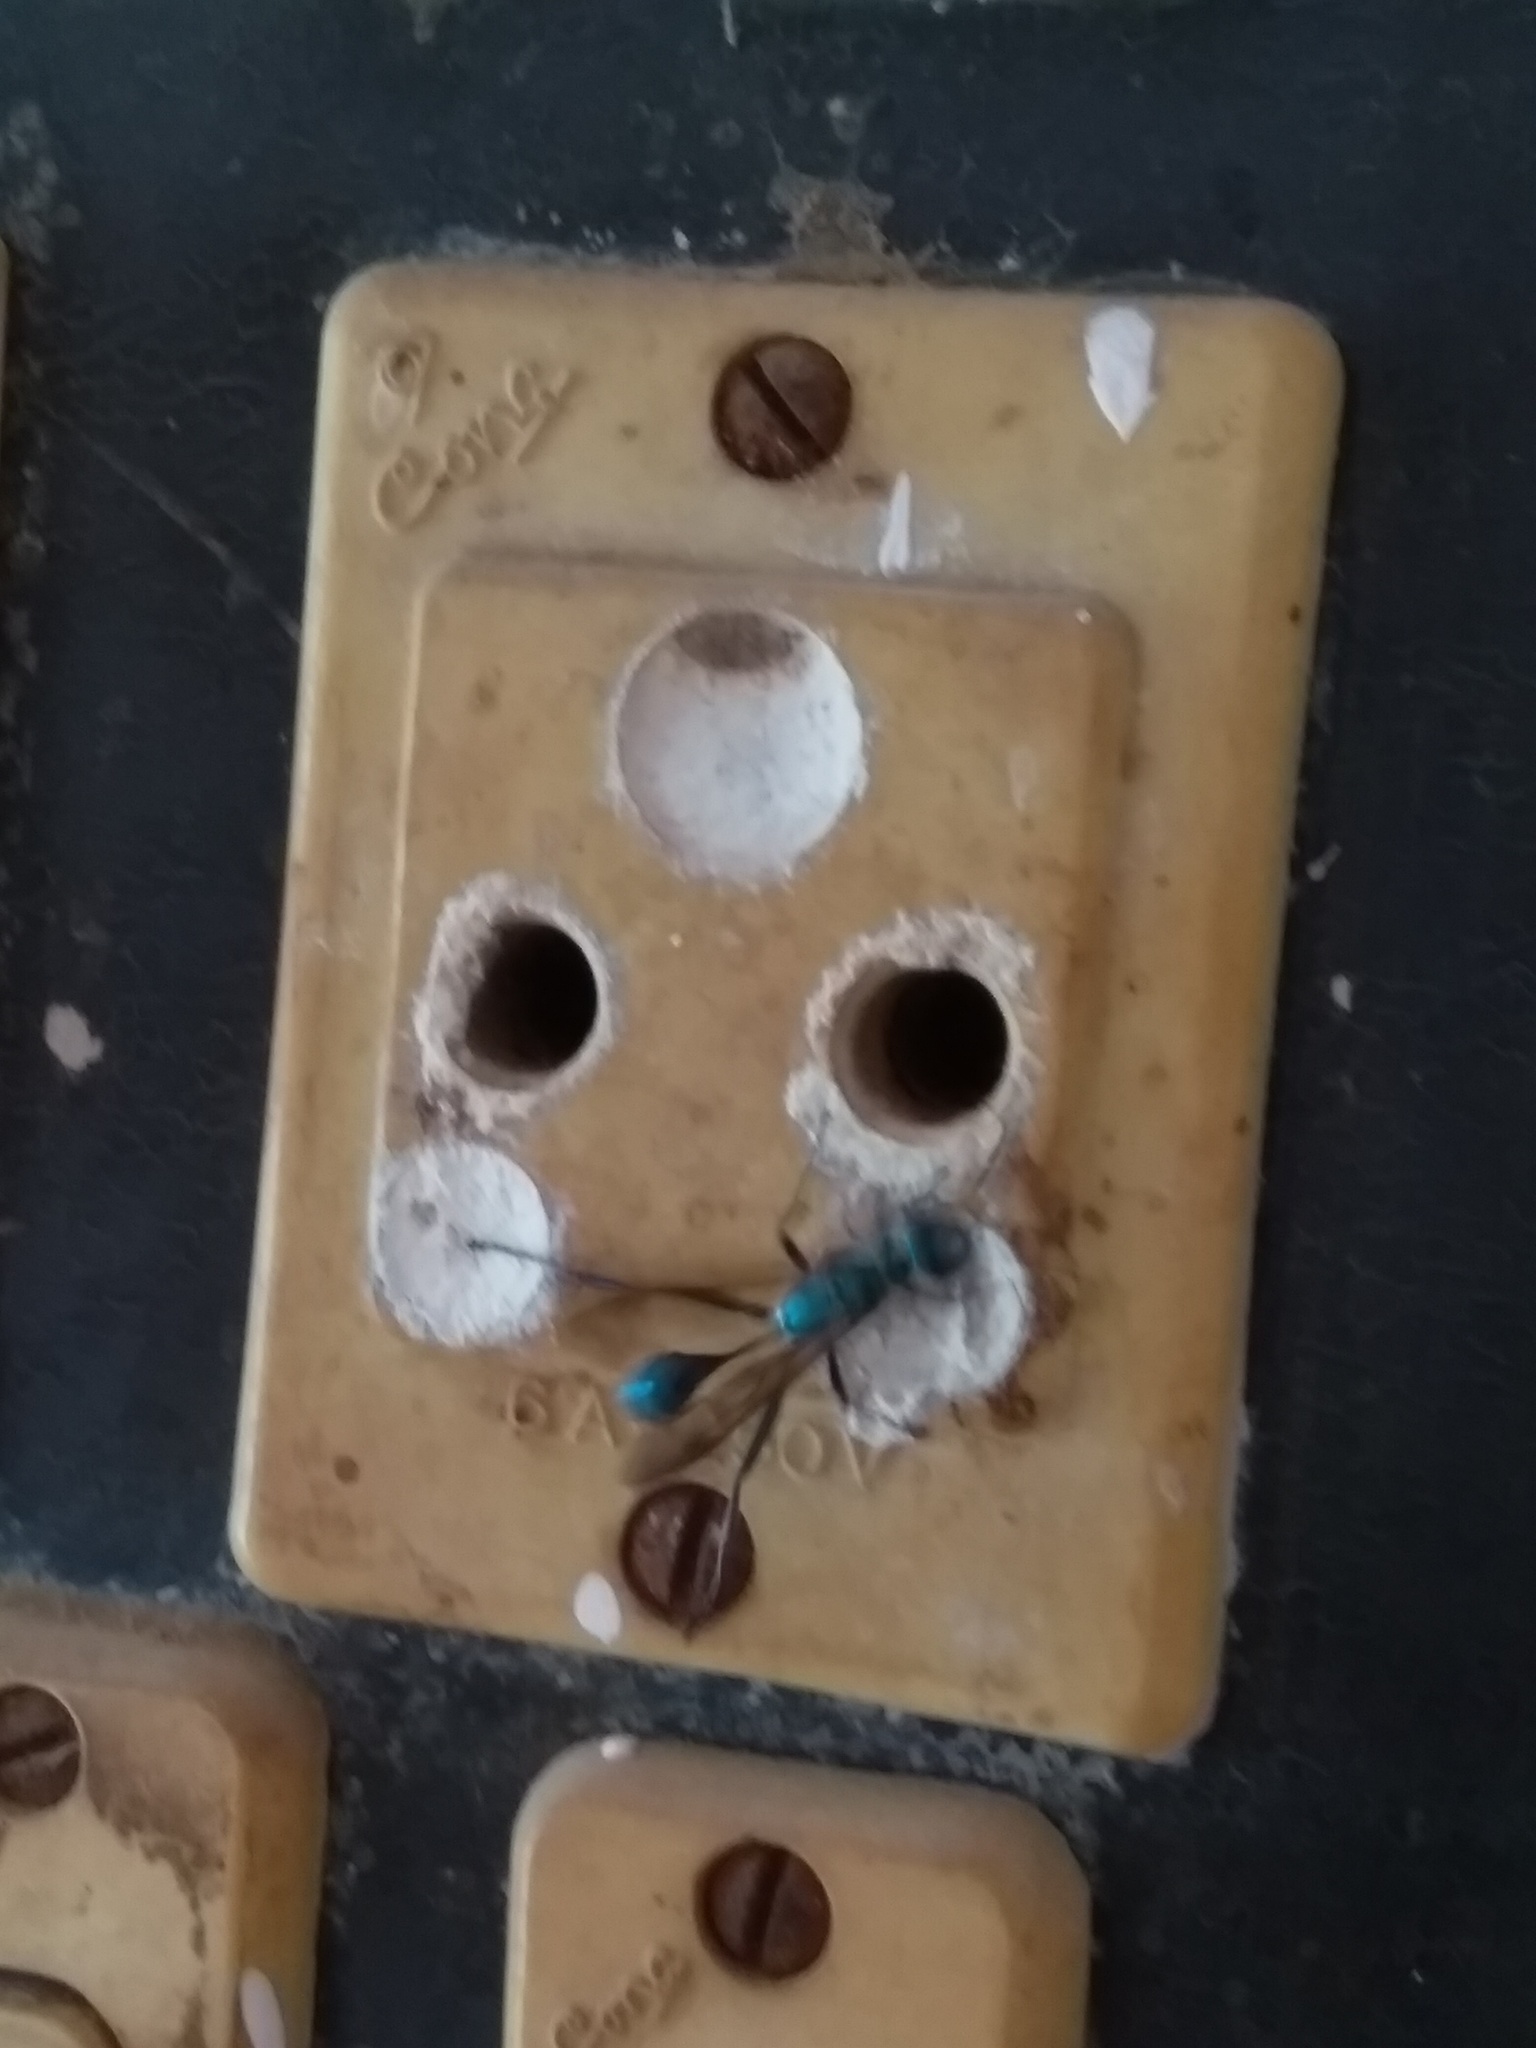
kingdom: Animalia
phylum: Arthropoda
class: Insecta
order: Hymenoptera
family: Sphecidae
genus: Chalybion
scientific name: Chalybion bengalense
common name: Mud dauber
